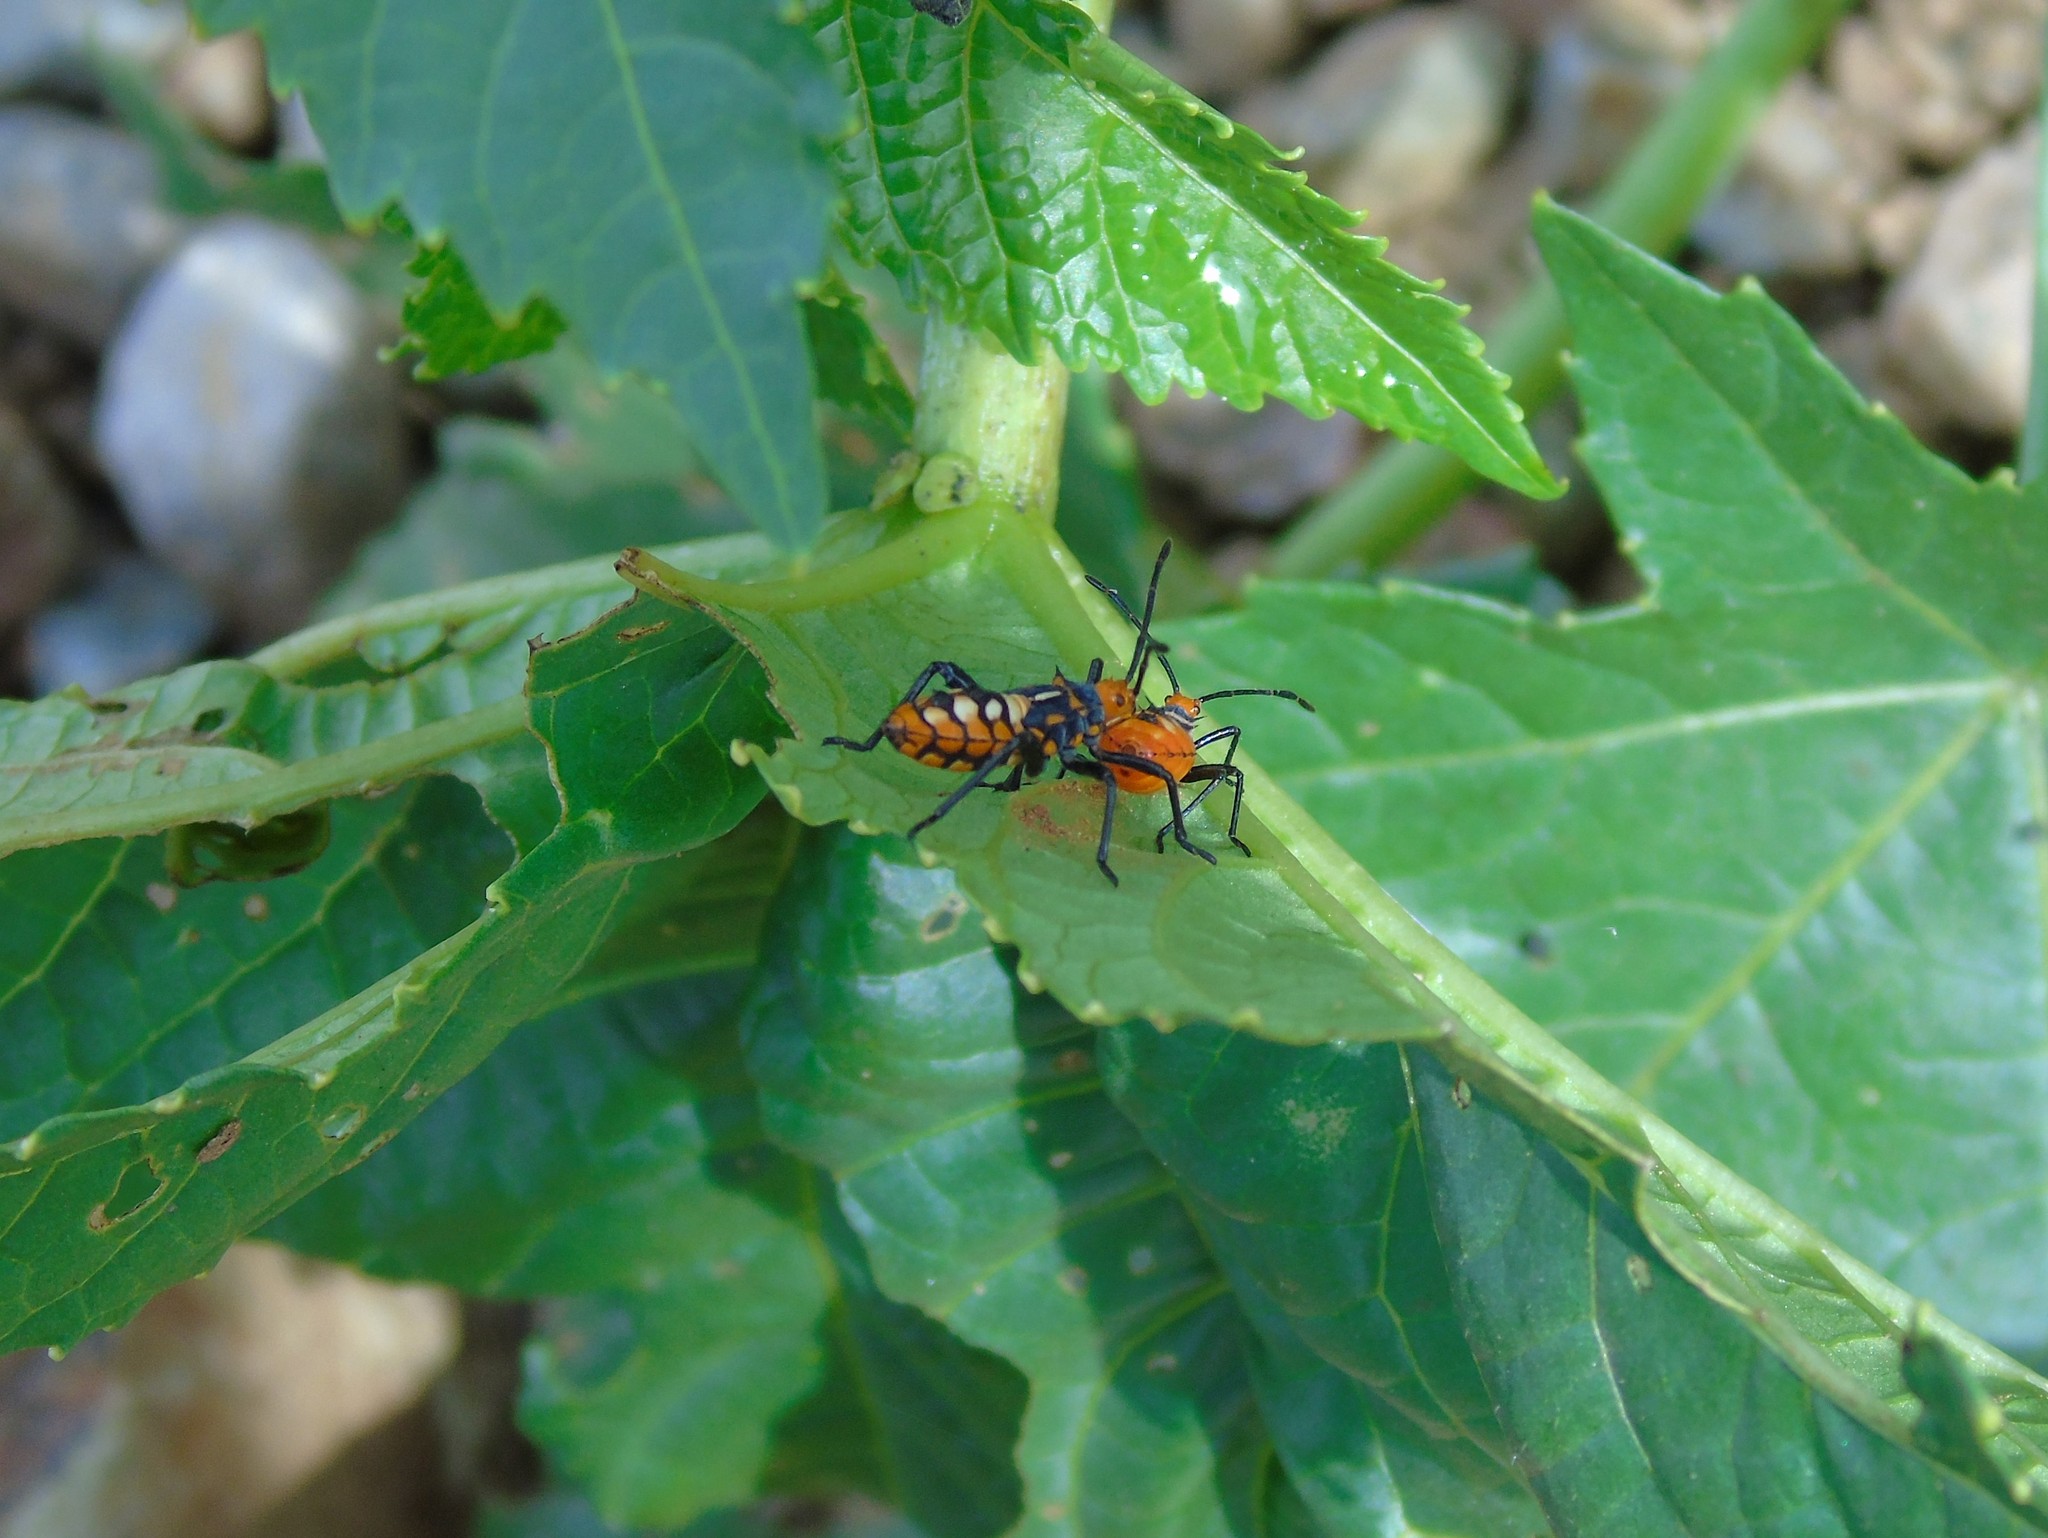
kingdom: Animalia
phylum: Arthropoda
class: Insecta
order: Hemiptera
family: Coreidae
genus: Sagotylus
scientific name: Sagotylus confluens
